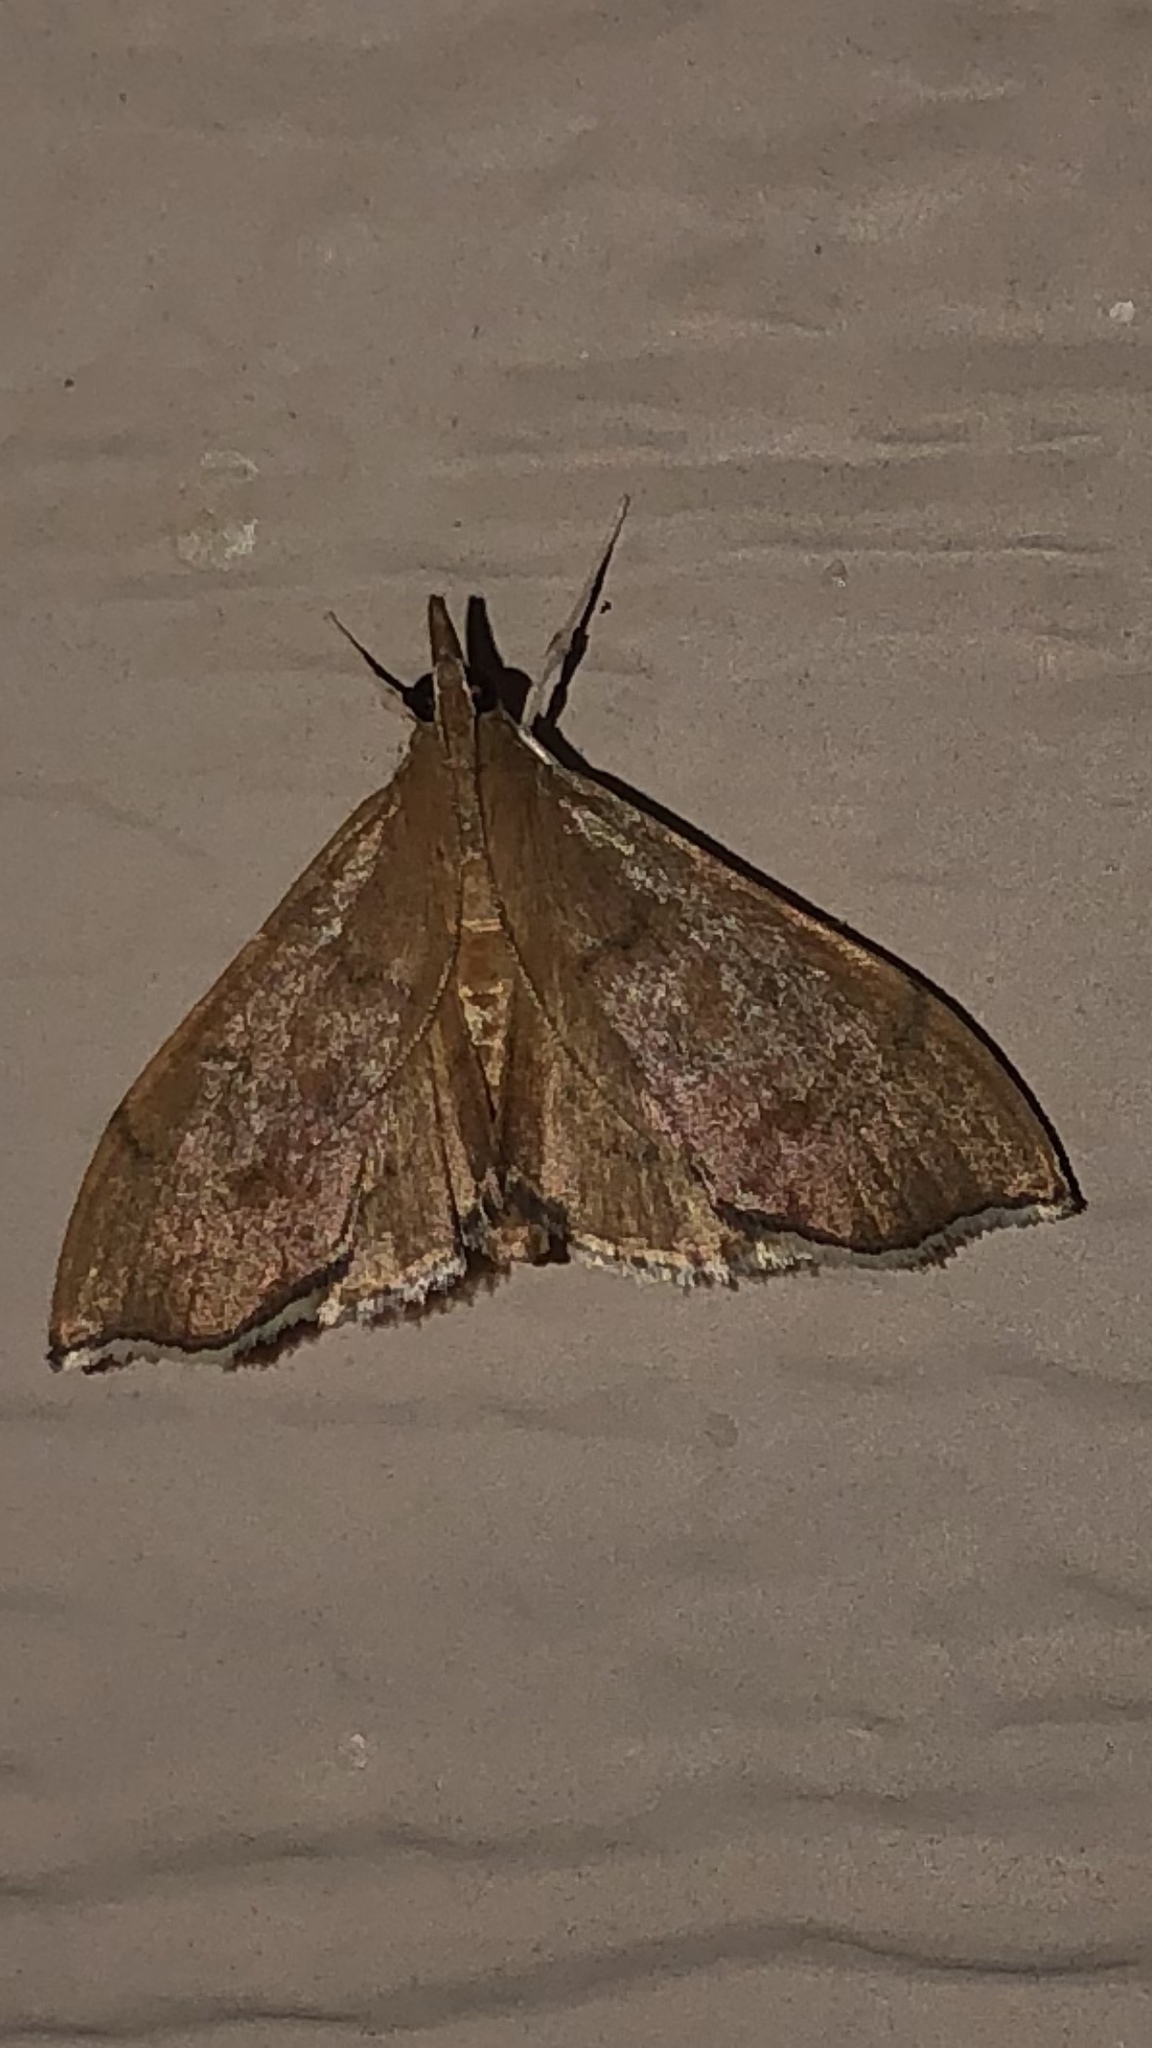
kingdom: Animalia
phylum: Arthropoda
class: Insecta
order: Lepidoptera
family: Crambidae
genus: Sericoplaga
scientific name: Sericoplaga externalis
